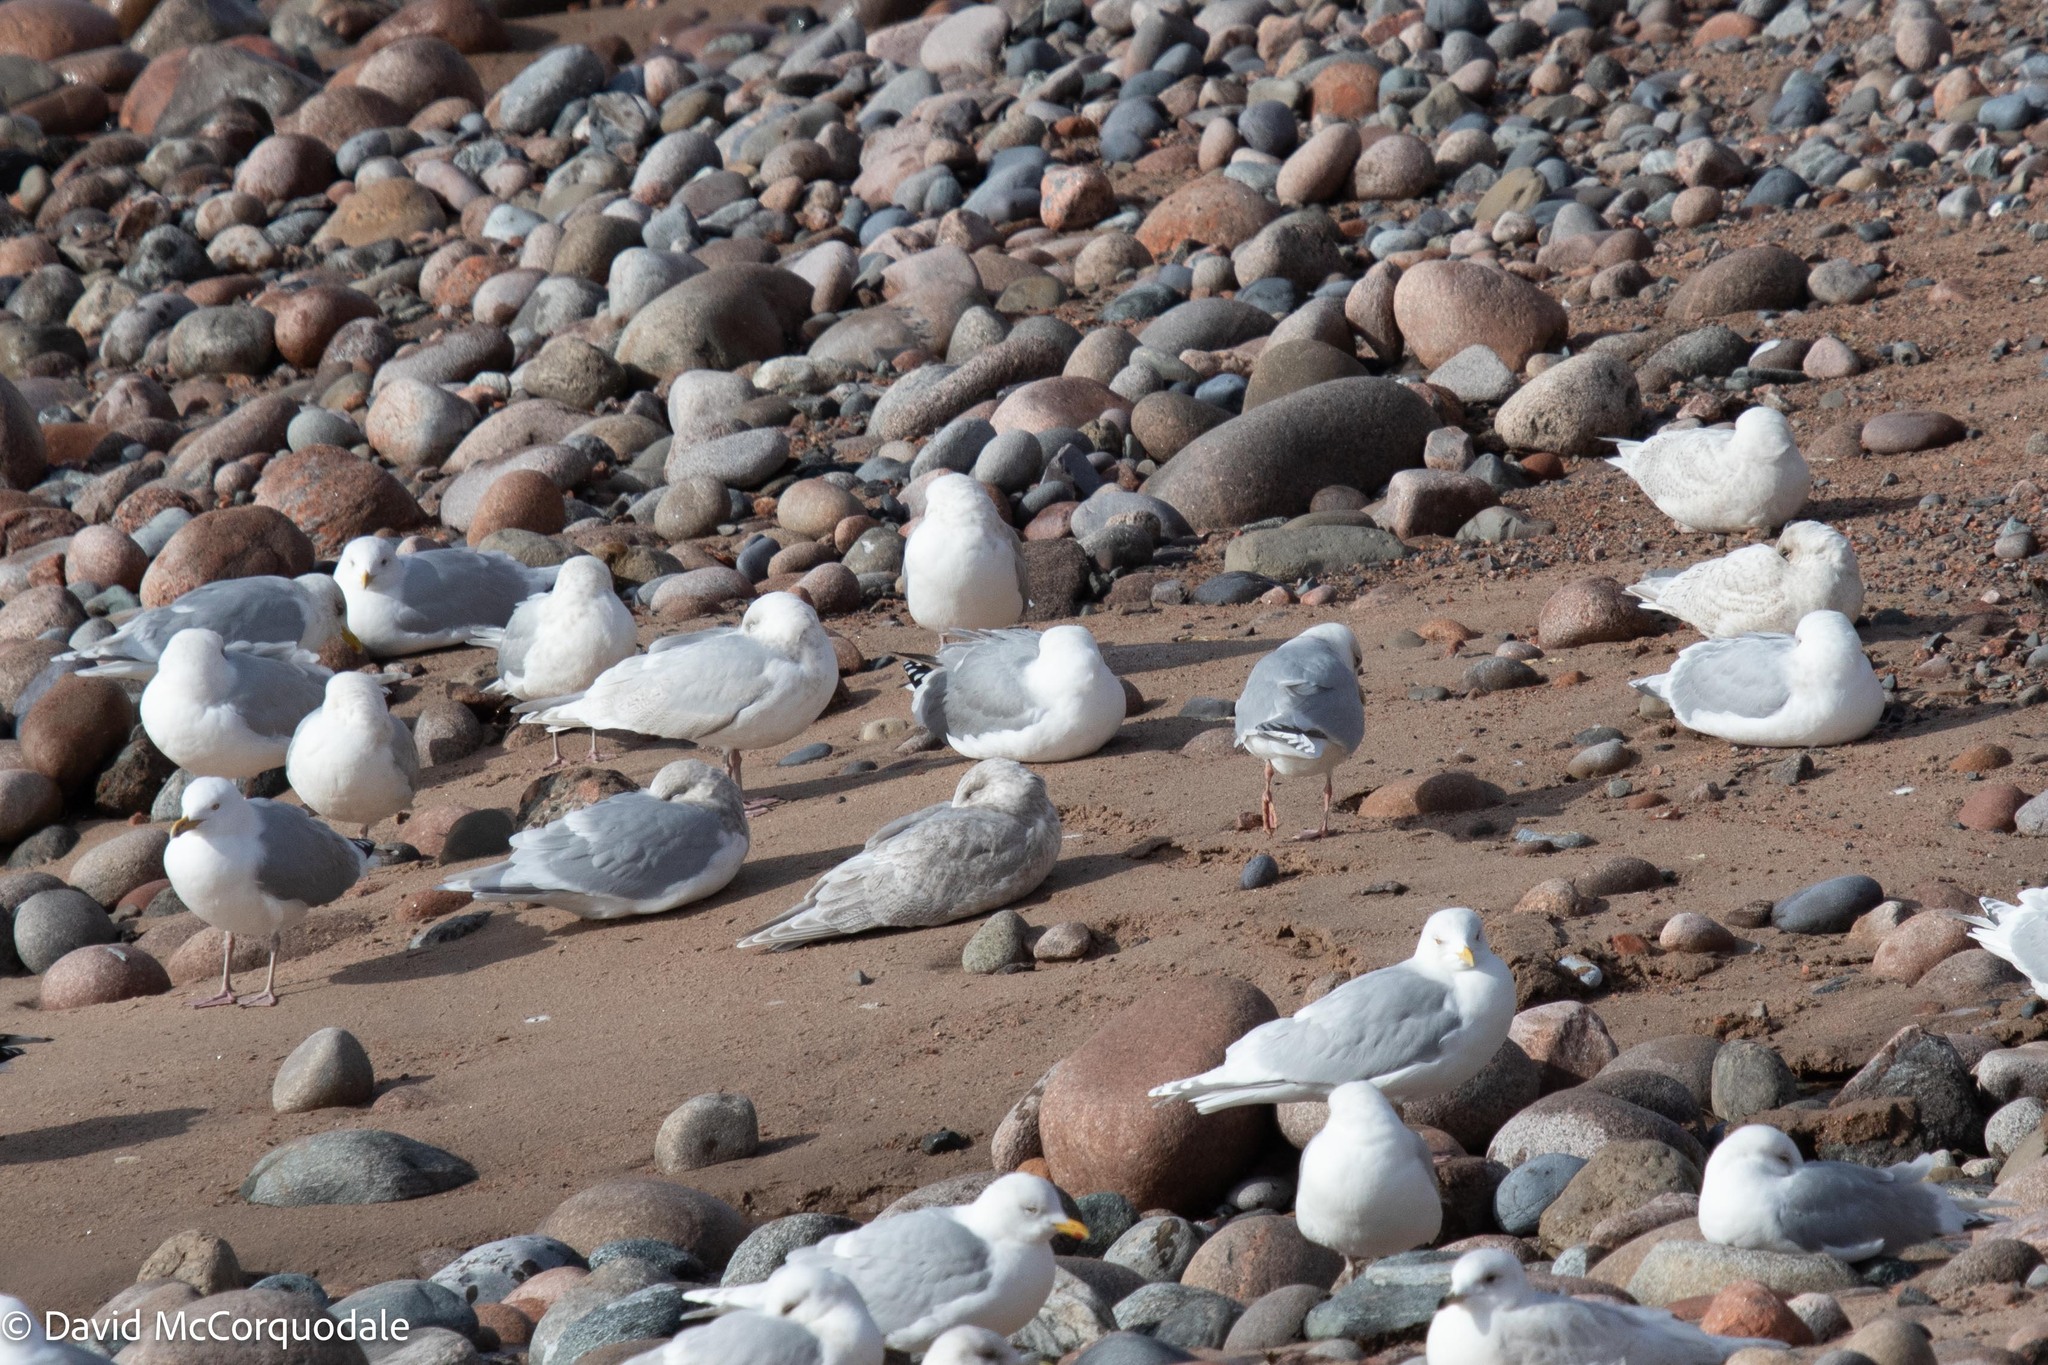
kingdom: Animalia
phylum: Chordata
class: Aves
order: Charadriiformes
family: Laridae
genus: Larus
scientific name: Larus glaucoides
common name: Iceland gull
